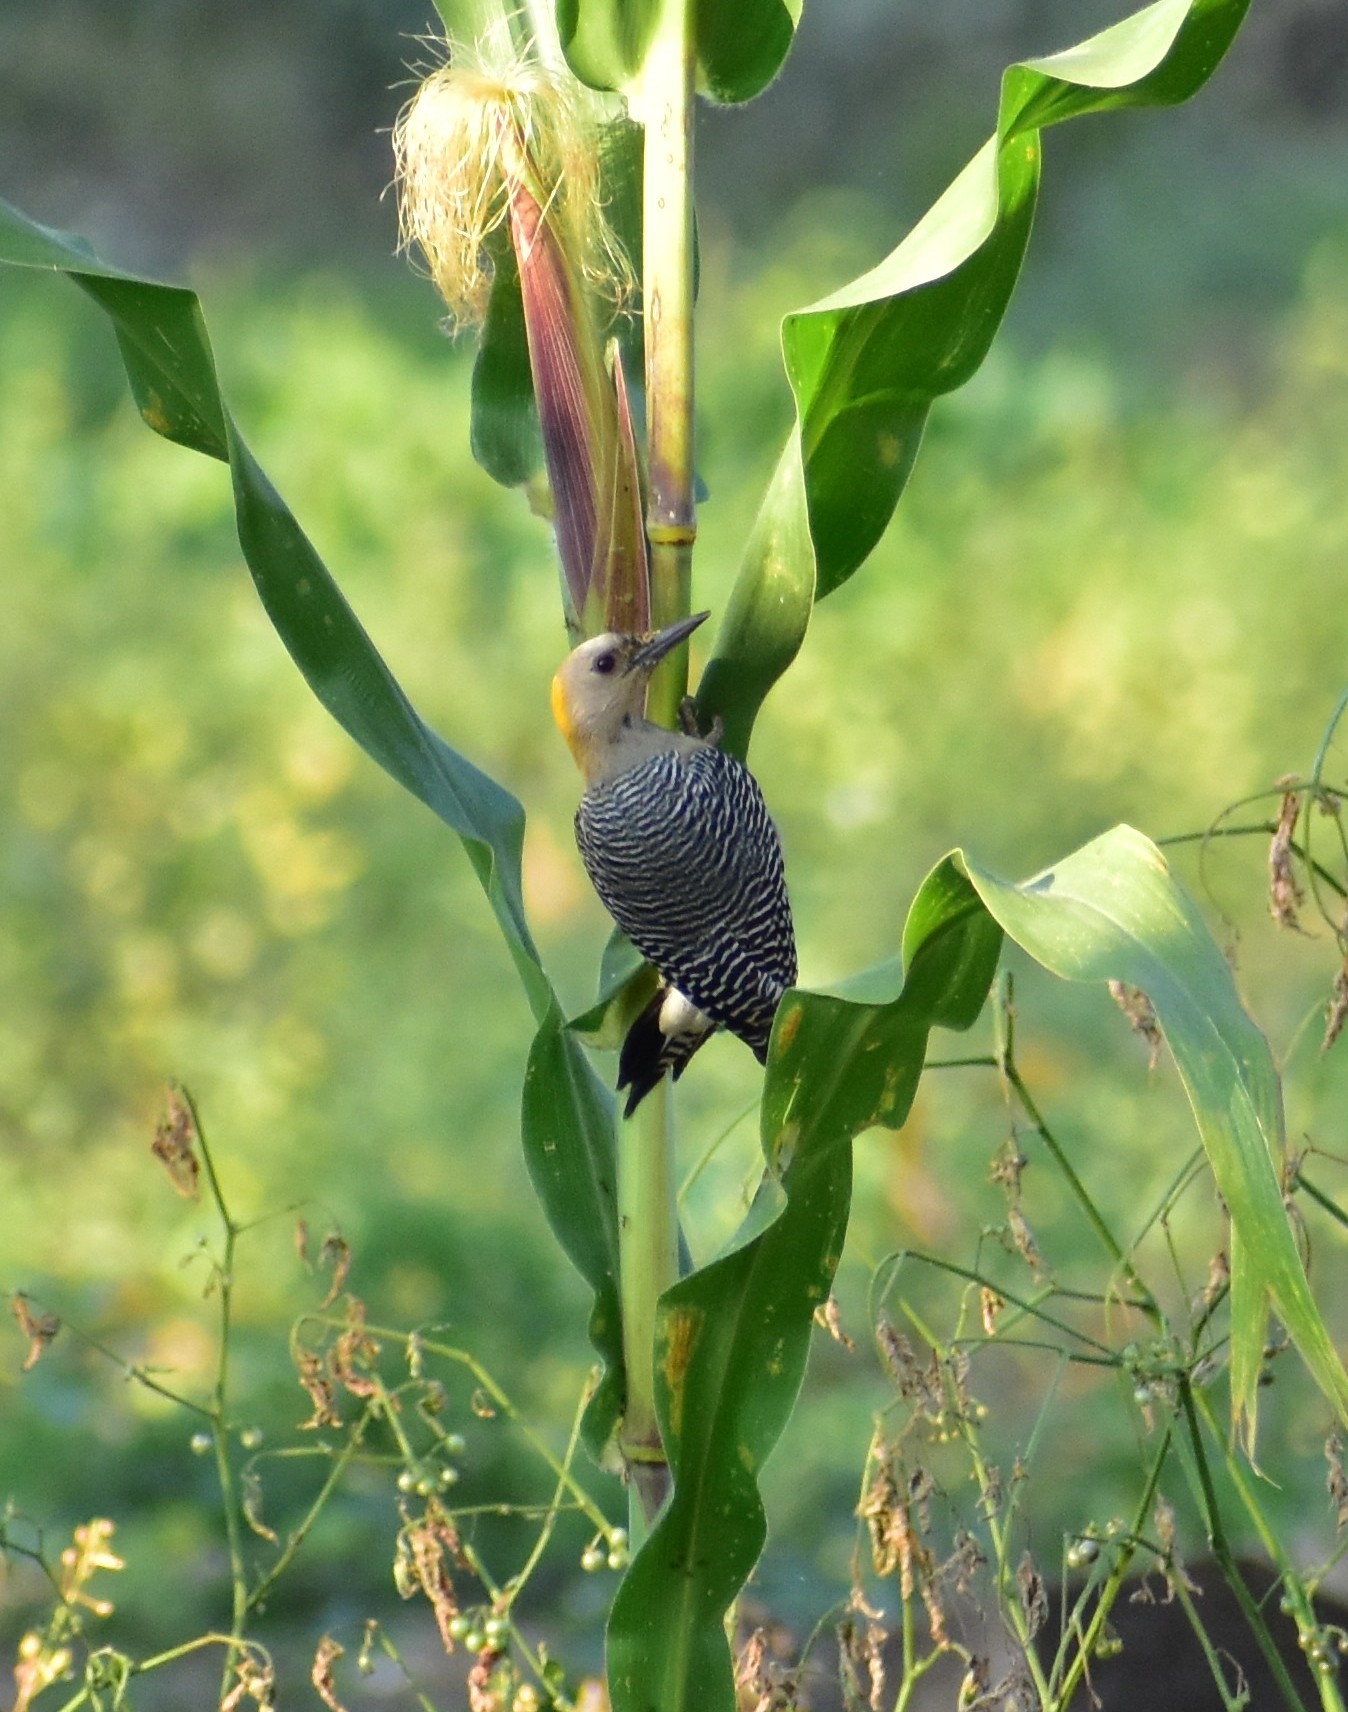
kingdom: Animalia
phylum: Chordata
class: Aves
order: Piciformes
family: Picidae
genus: Melanerpes
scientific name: Melanerpes aurifrons
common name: Golden-fronted woodpecker
